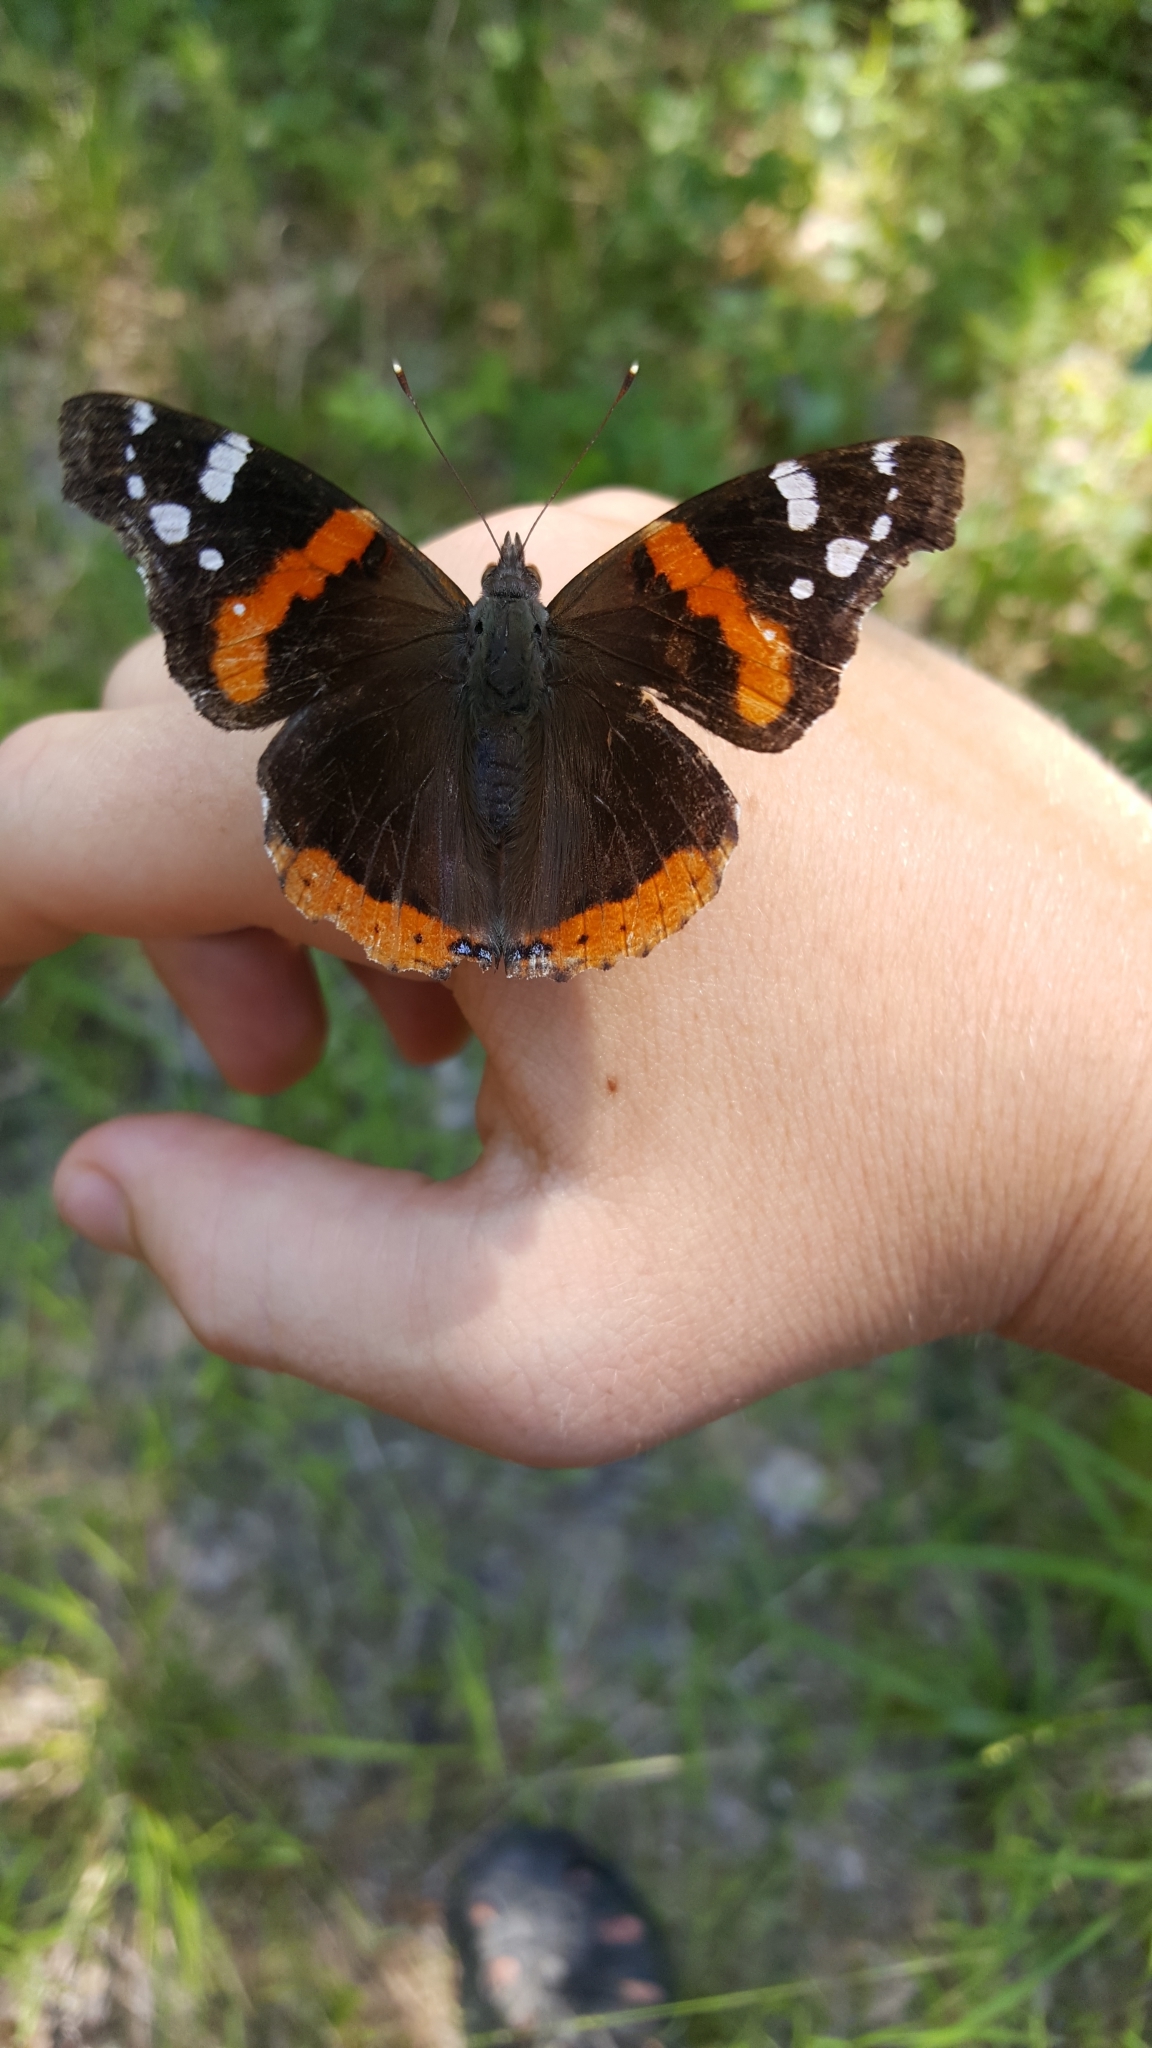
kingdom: Animalia
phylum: Arthropoda
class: Insecta
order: Lepidoptera
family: Nymphalidae
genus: Vanessa
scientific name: Vanessa atalanta
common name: Red admiral
